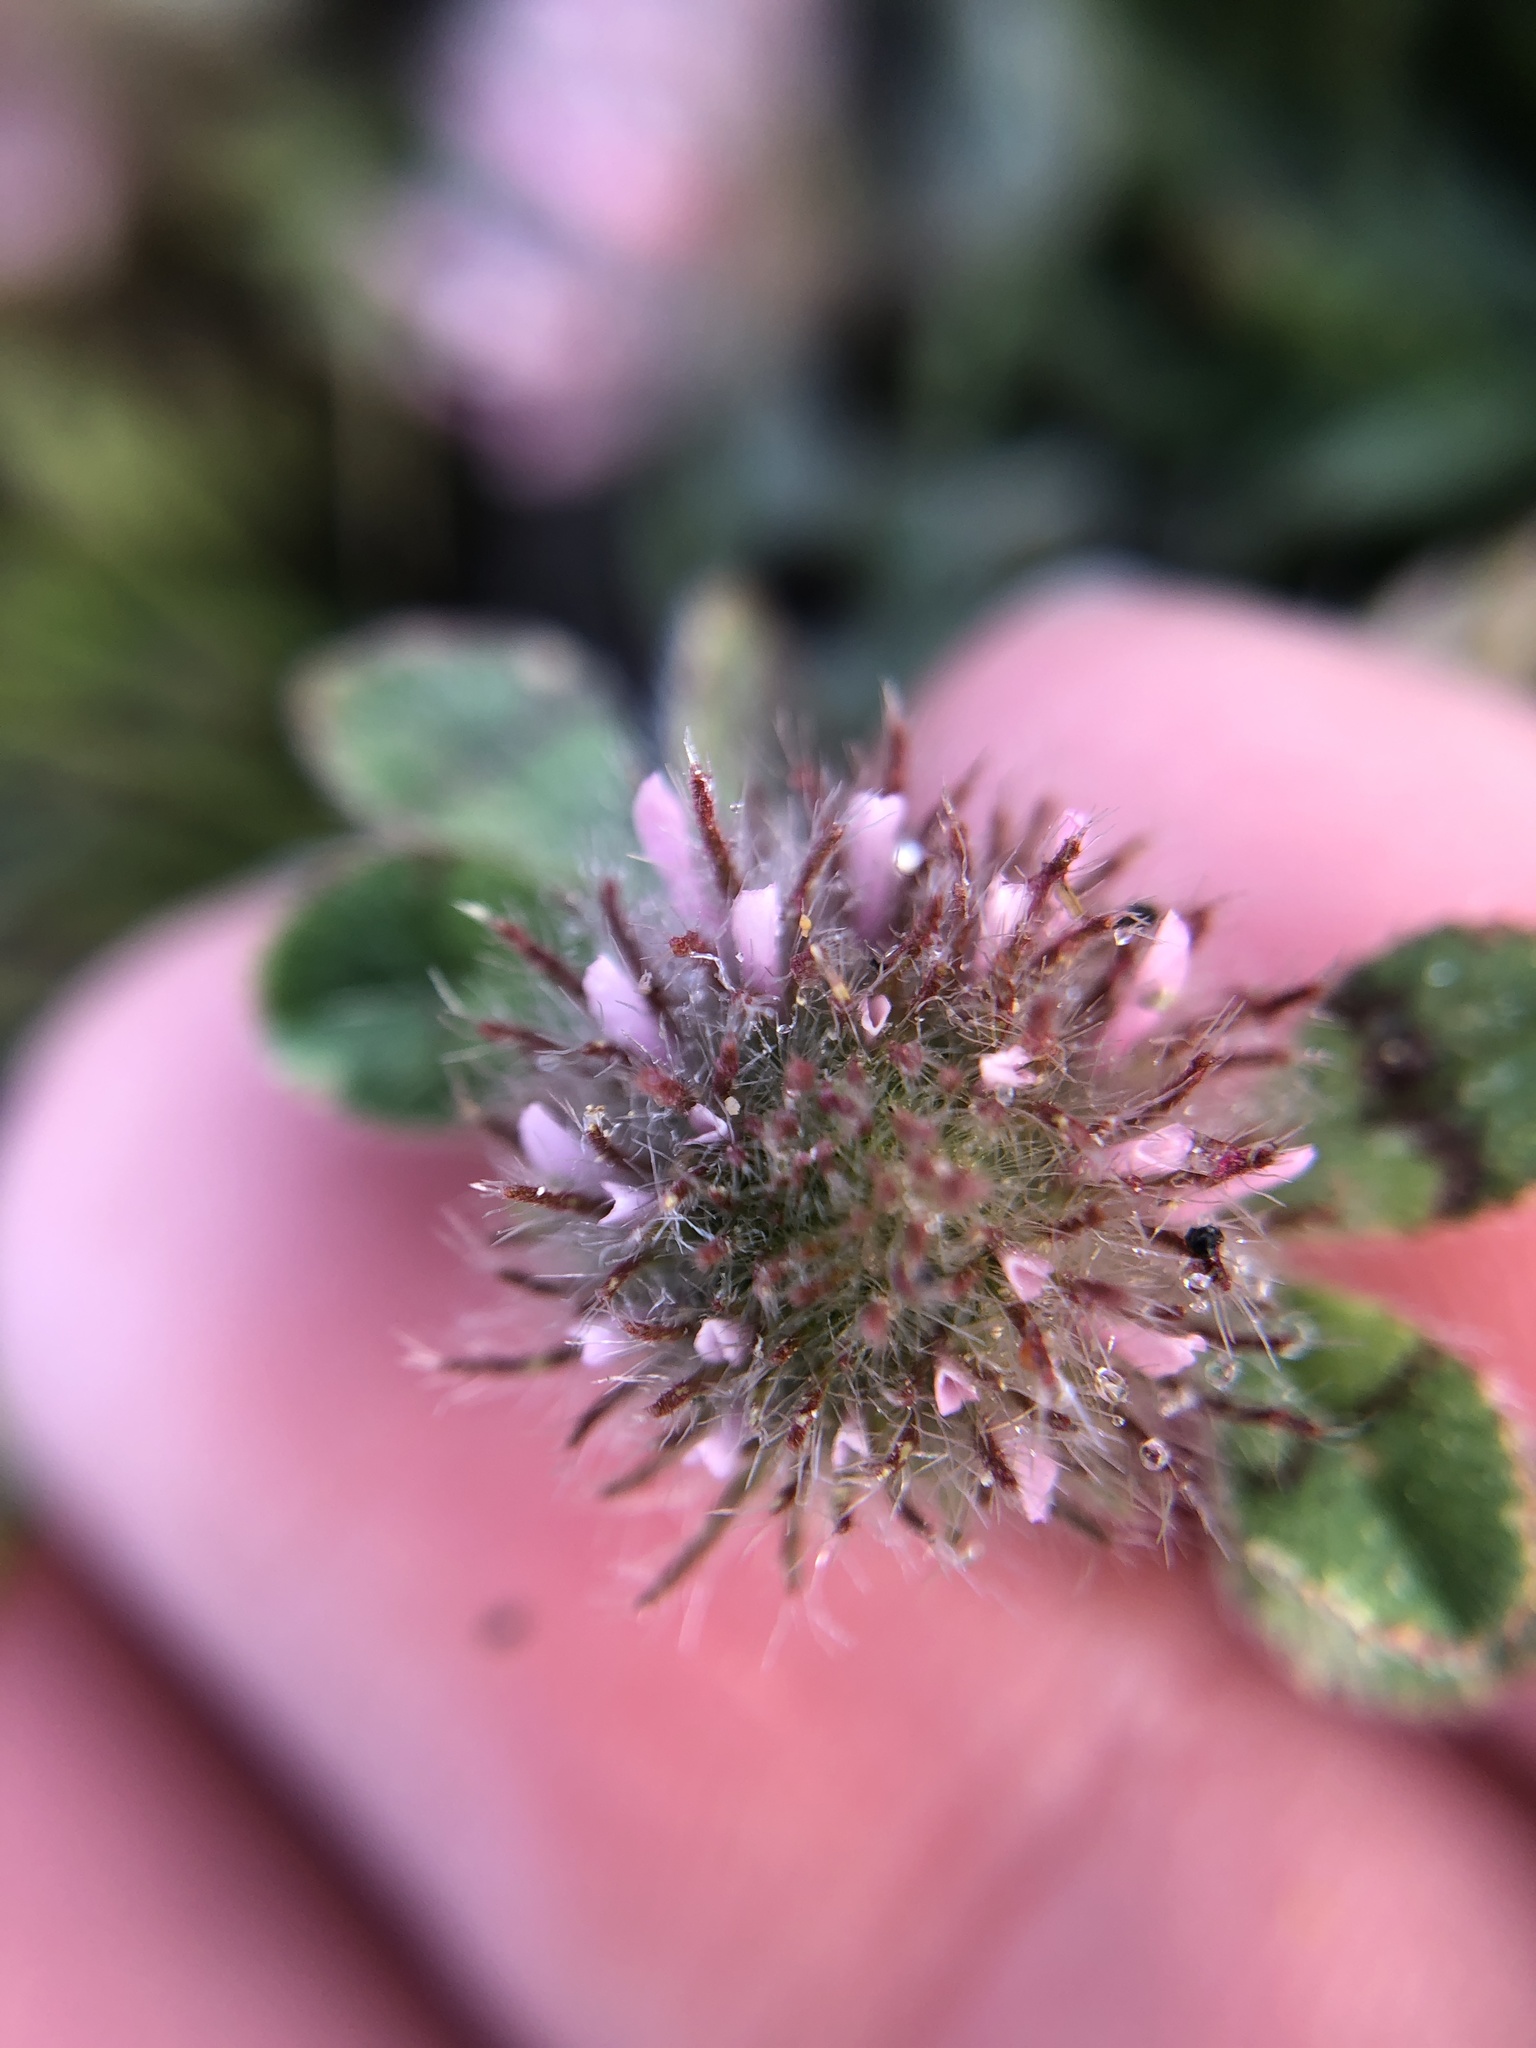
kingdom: Plantae
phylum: Tracheophyta
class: Magnoliopsida
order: Fabales
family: Fabaceae
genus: Trifolium
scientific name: Trifolium hirtum
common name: Rose clover
